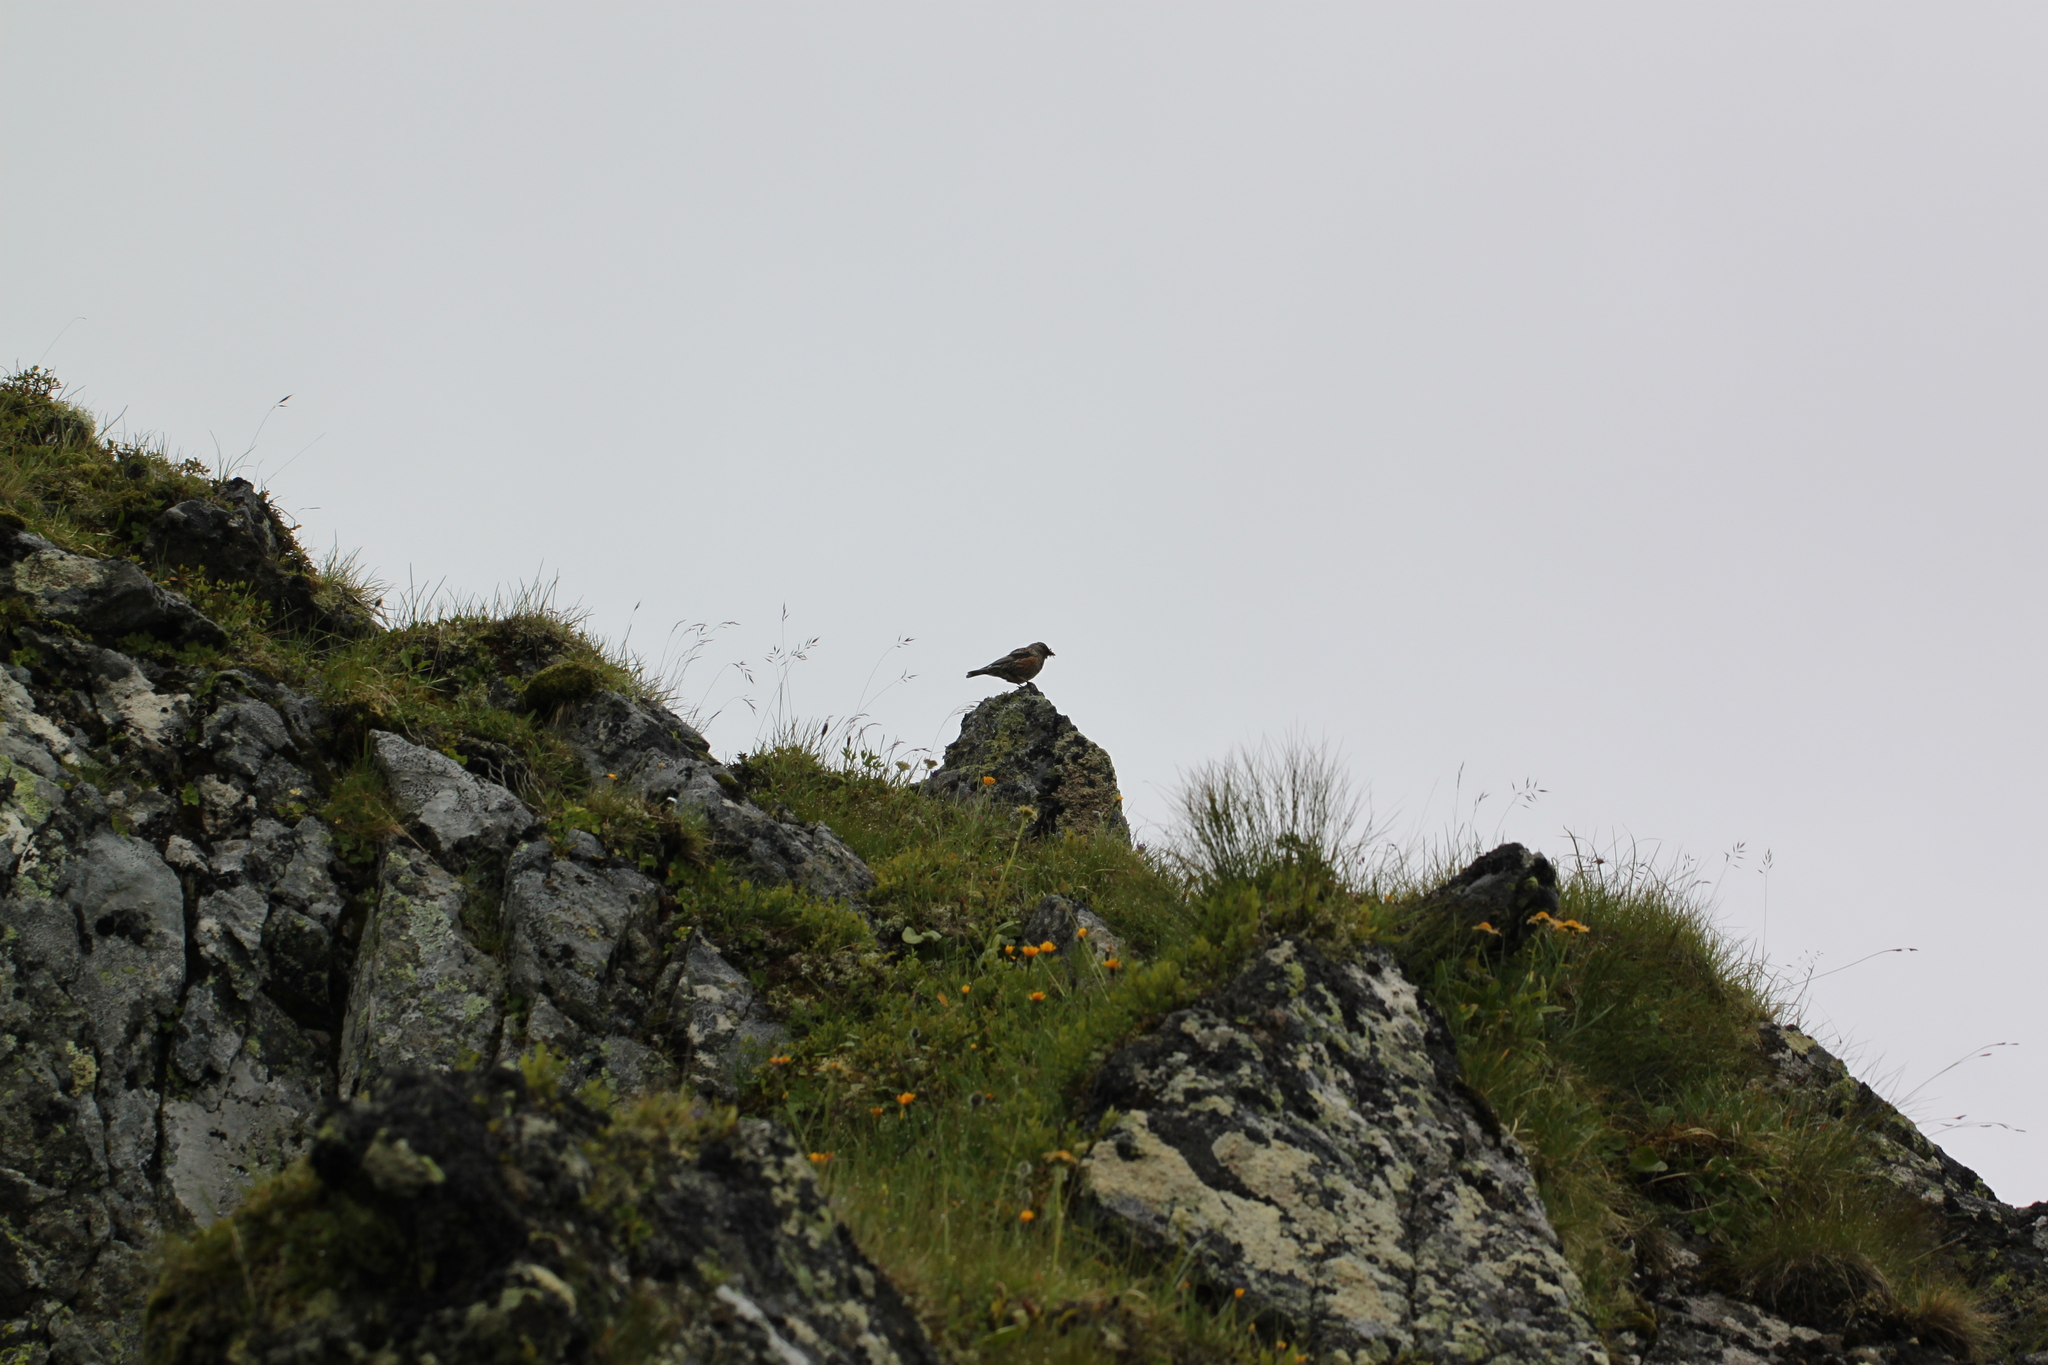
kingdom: Animalia
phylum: Chordata
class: Aves
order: Passeriformes
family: Prunellidae
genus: Prunella
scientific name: Prunella collaris
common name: Alpine accentor
